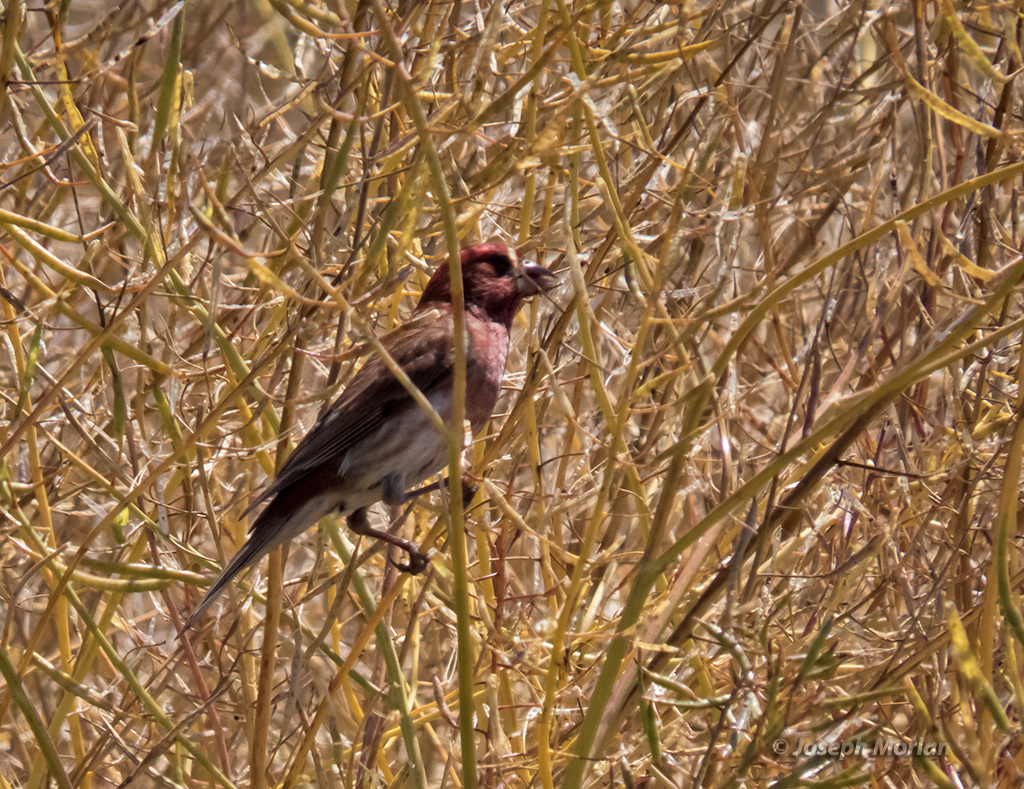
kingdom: Animalia
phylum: Chordata
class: Aves
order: Passeriformes
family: Fringillidae
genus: Haemorhous
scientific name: Haemorhous purpureus
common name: Purple finch
